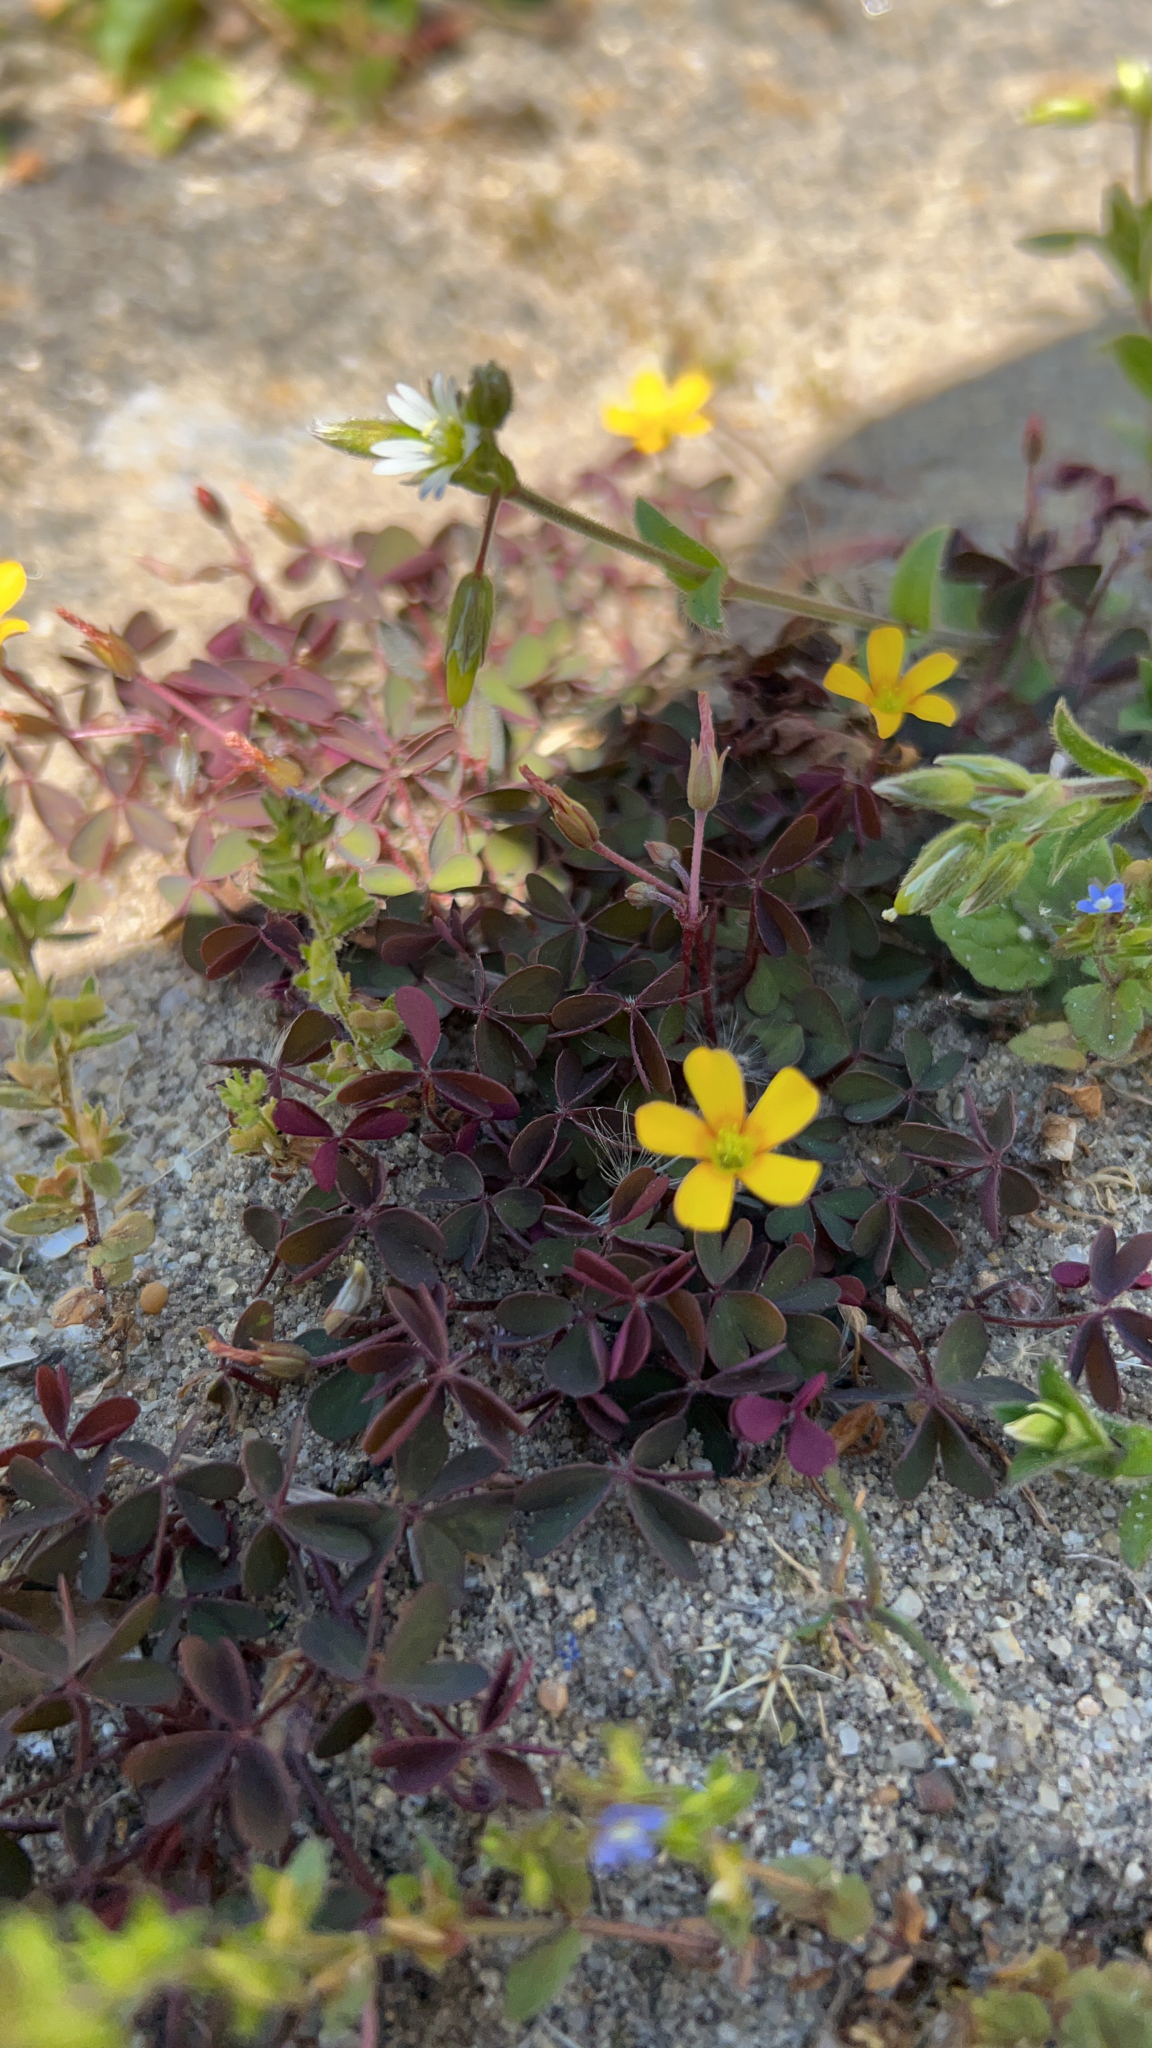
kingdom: Plantae
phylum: Tracheophyta
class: Magnoliopsida
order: Oxalidales
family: Oxalidaceae
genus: Oxalis
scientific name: Oxalis corniculata
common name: Procumbent yellow-sorrel
